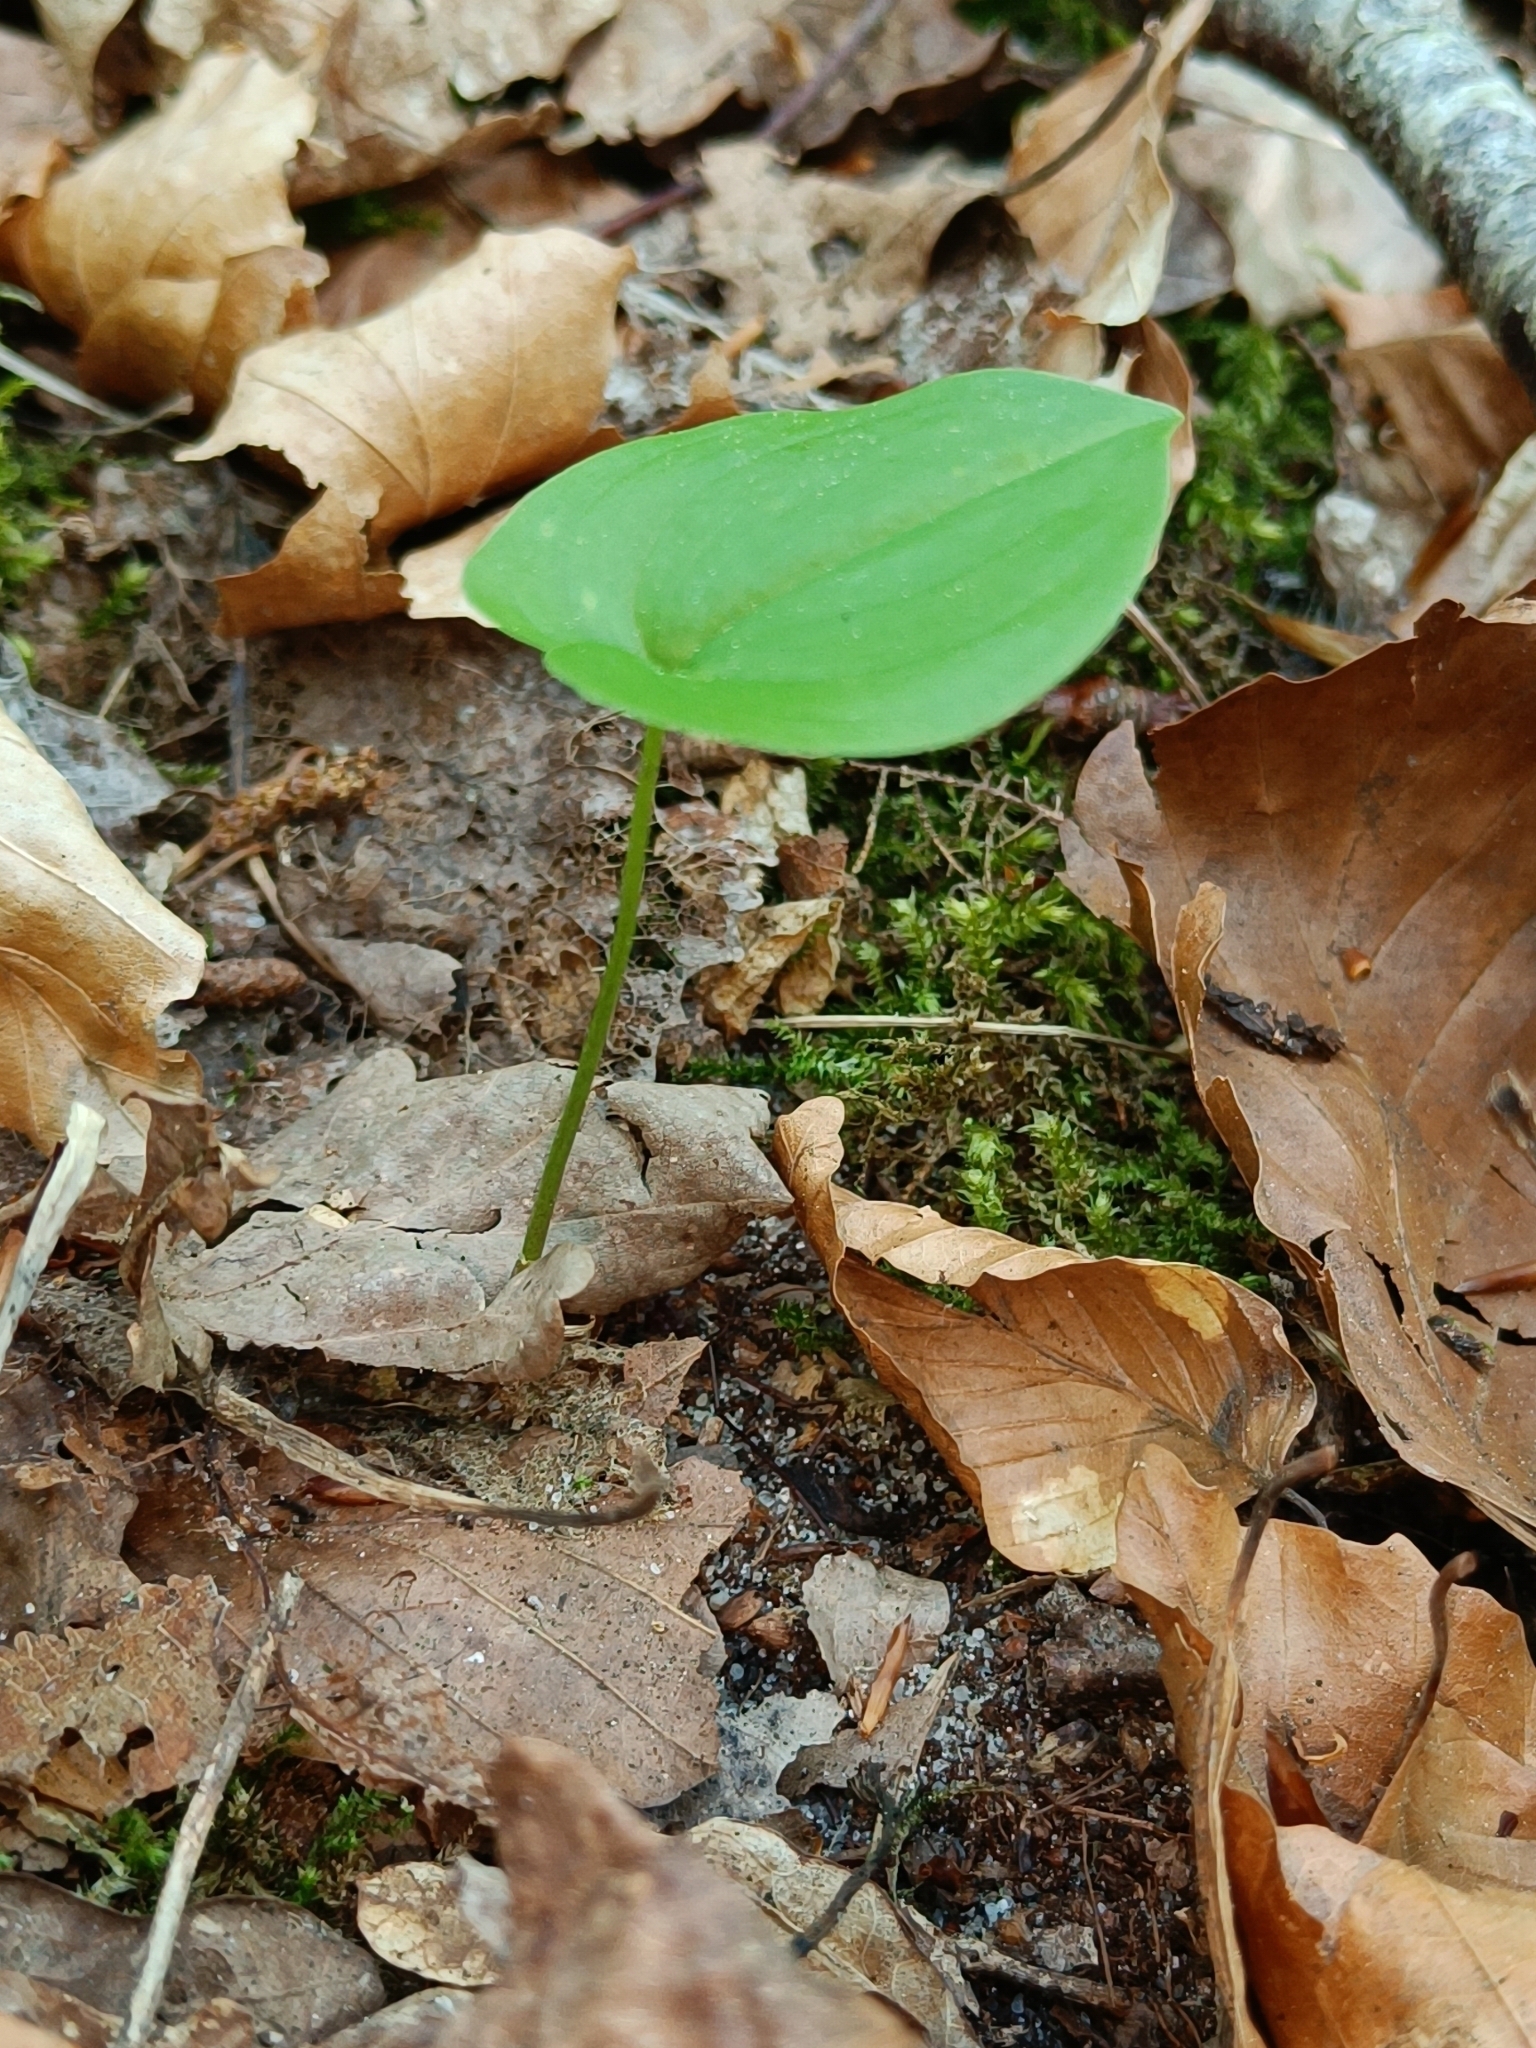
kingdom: Plantae
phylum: Tracheophyta
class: Liliopsida
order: Asparagales
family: Asparagaceae
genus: Maianthemum
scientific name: Maianthemum bifolium
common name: May lily
